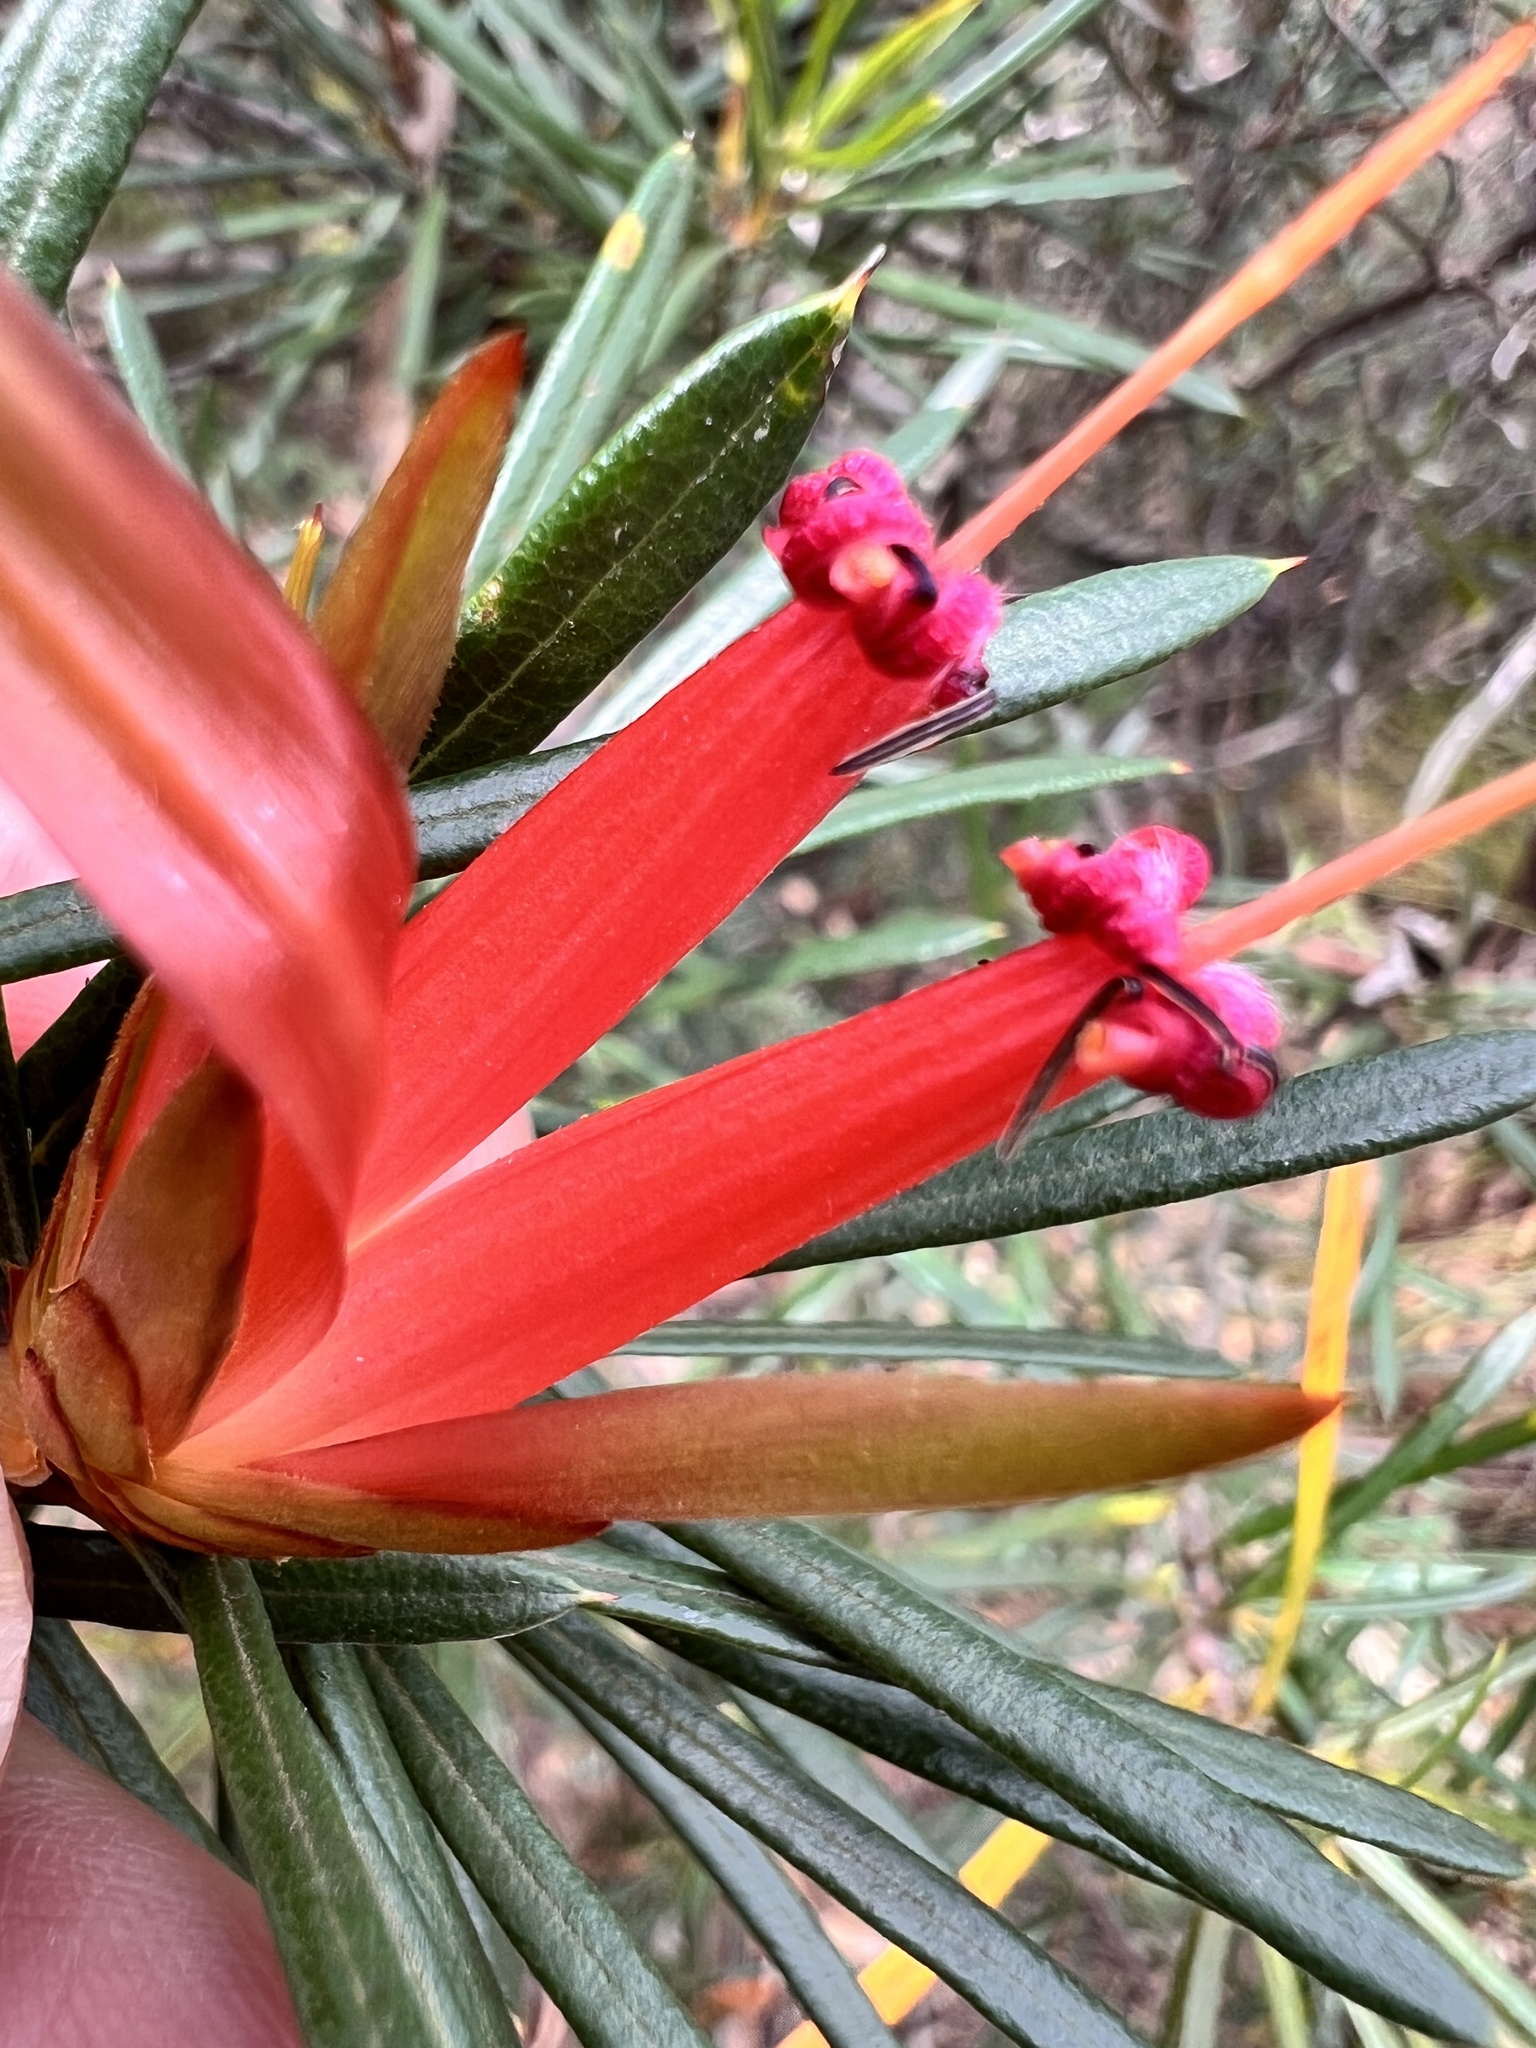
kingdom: Plantae
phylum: Tracheophyta
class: Magnoliopsida
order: Proteales
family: Proteaceae
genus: Lambertia
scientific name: Lambertia formosa
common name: Mountain-devil
